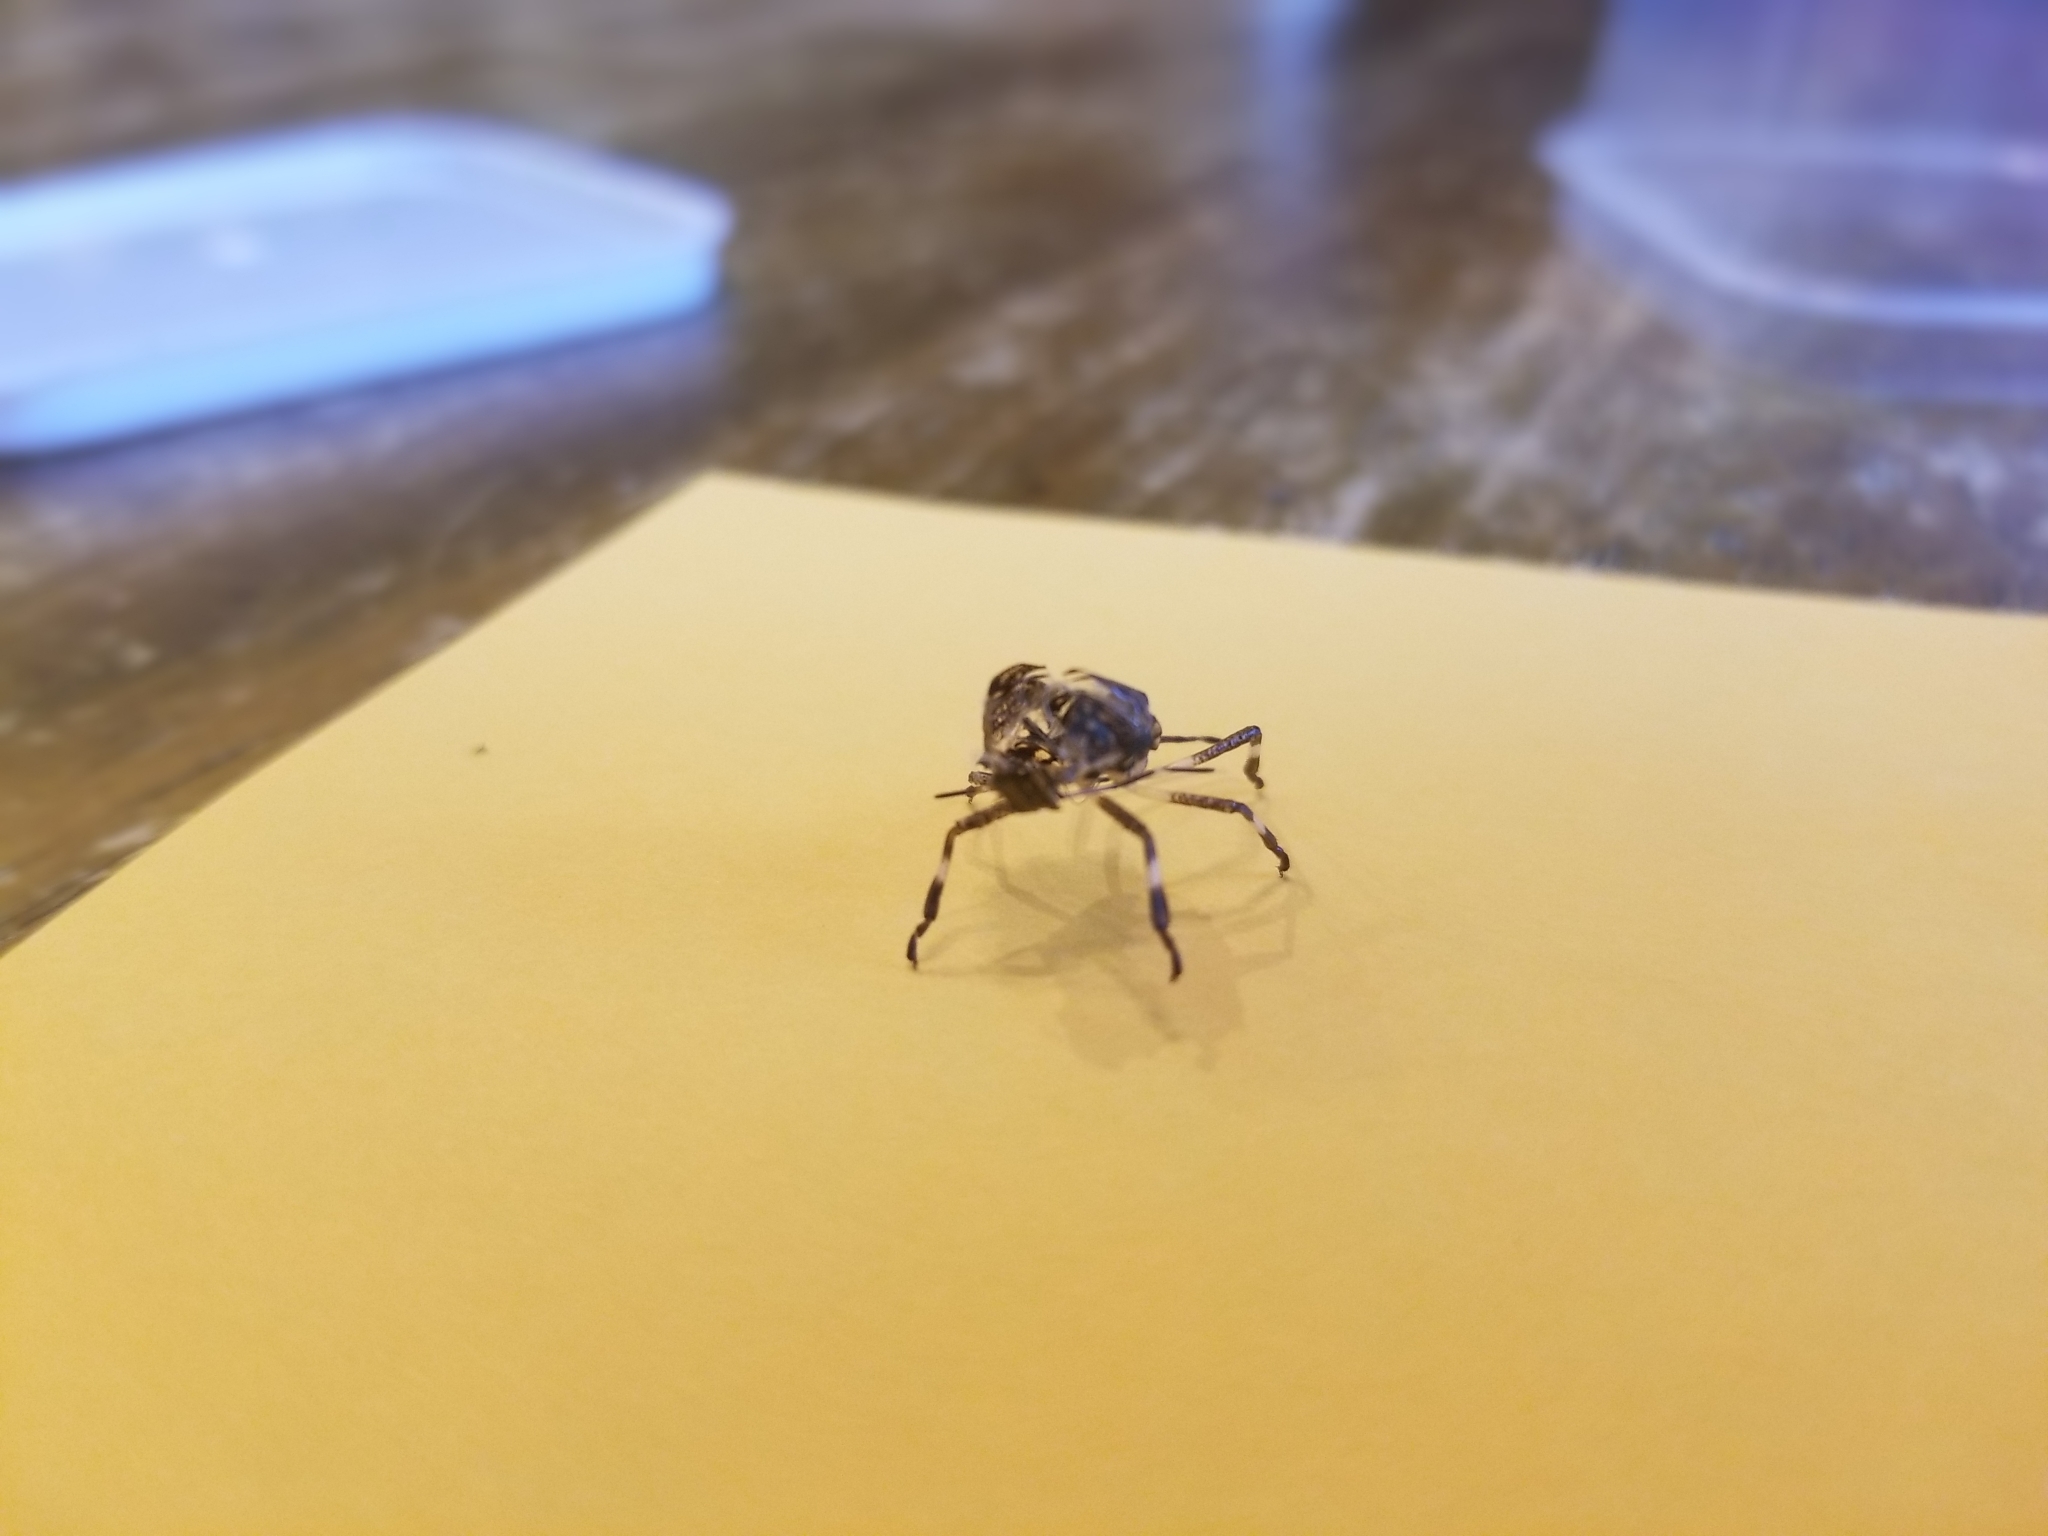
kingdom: Animalia
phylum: Arthropoda
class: Insecta
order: Hemiptera
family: Pentatomidae
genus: Halyomorpha
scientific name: Halyomorpha halys
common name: Brown marmorated stink bug
